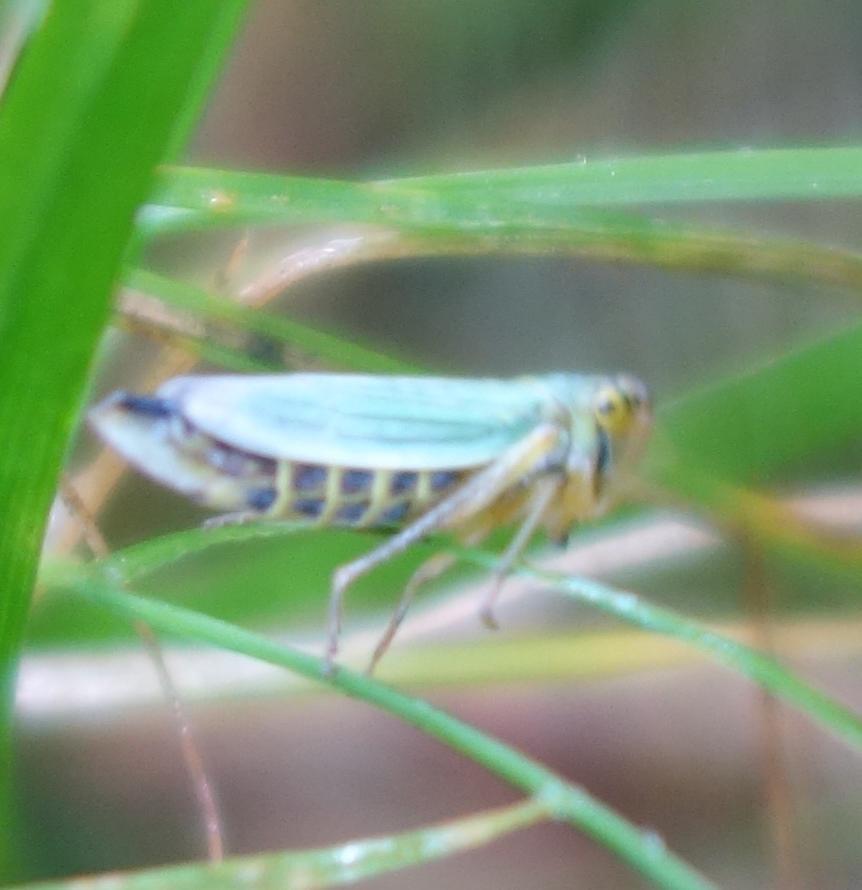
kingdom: Animalia
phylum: Arthropoda
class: Insecta
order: Hemiptera
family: Cicadellidae
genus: Cicadella
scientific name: Cicadella viridis
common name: Leafhopper
